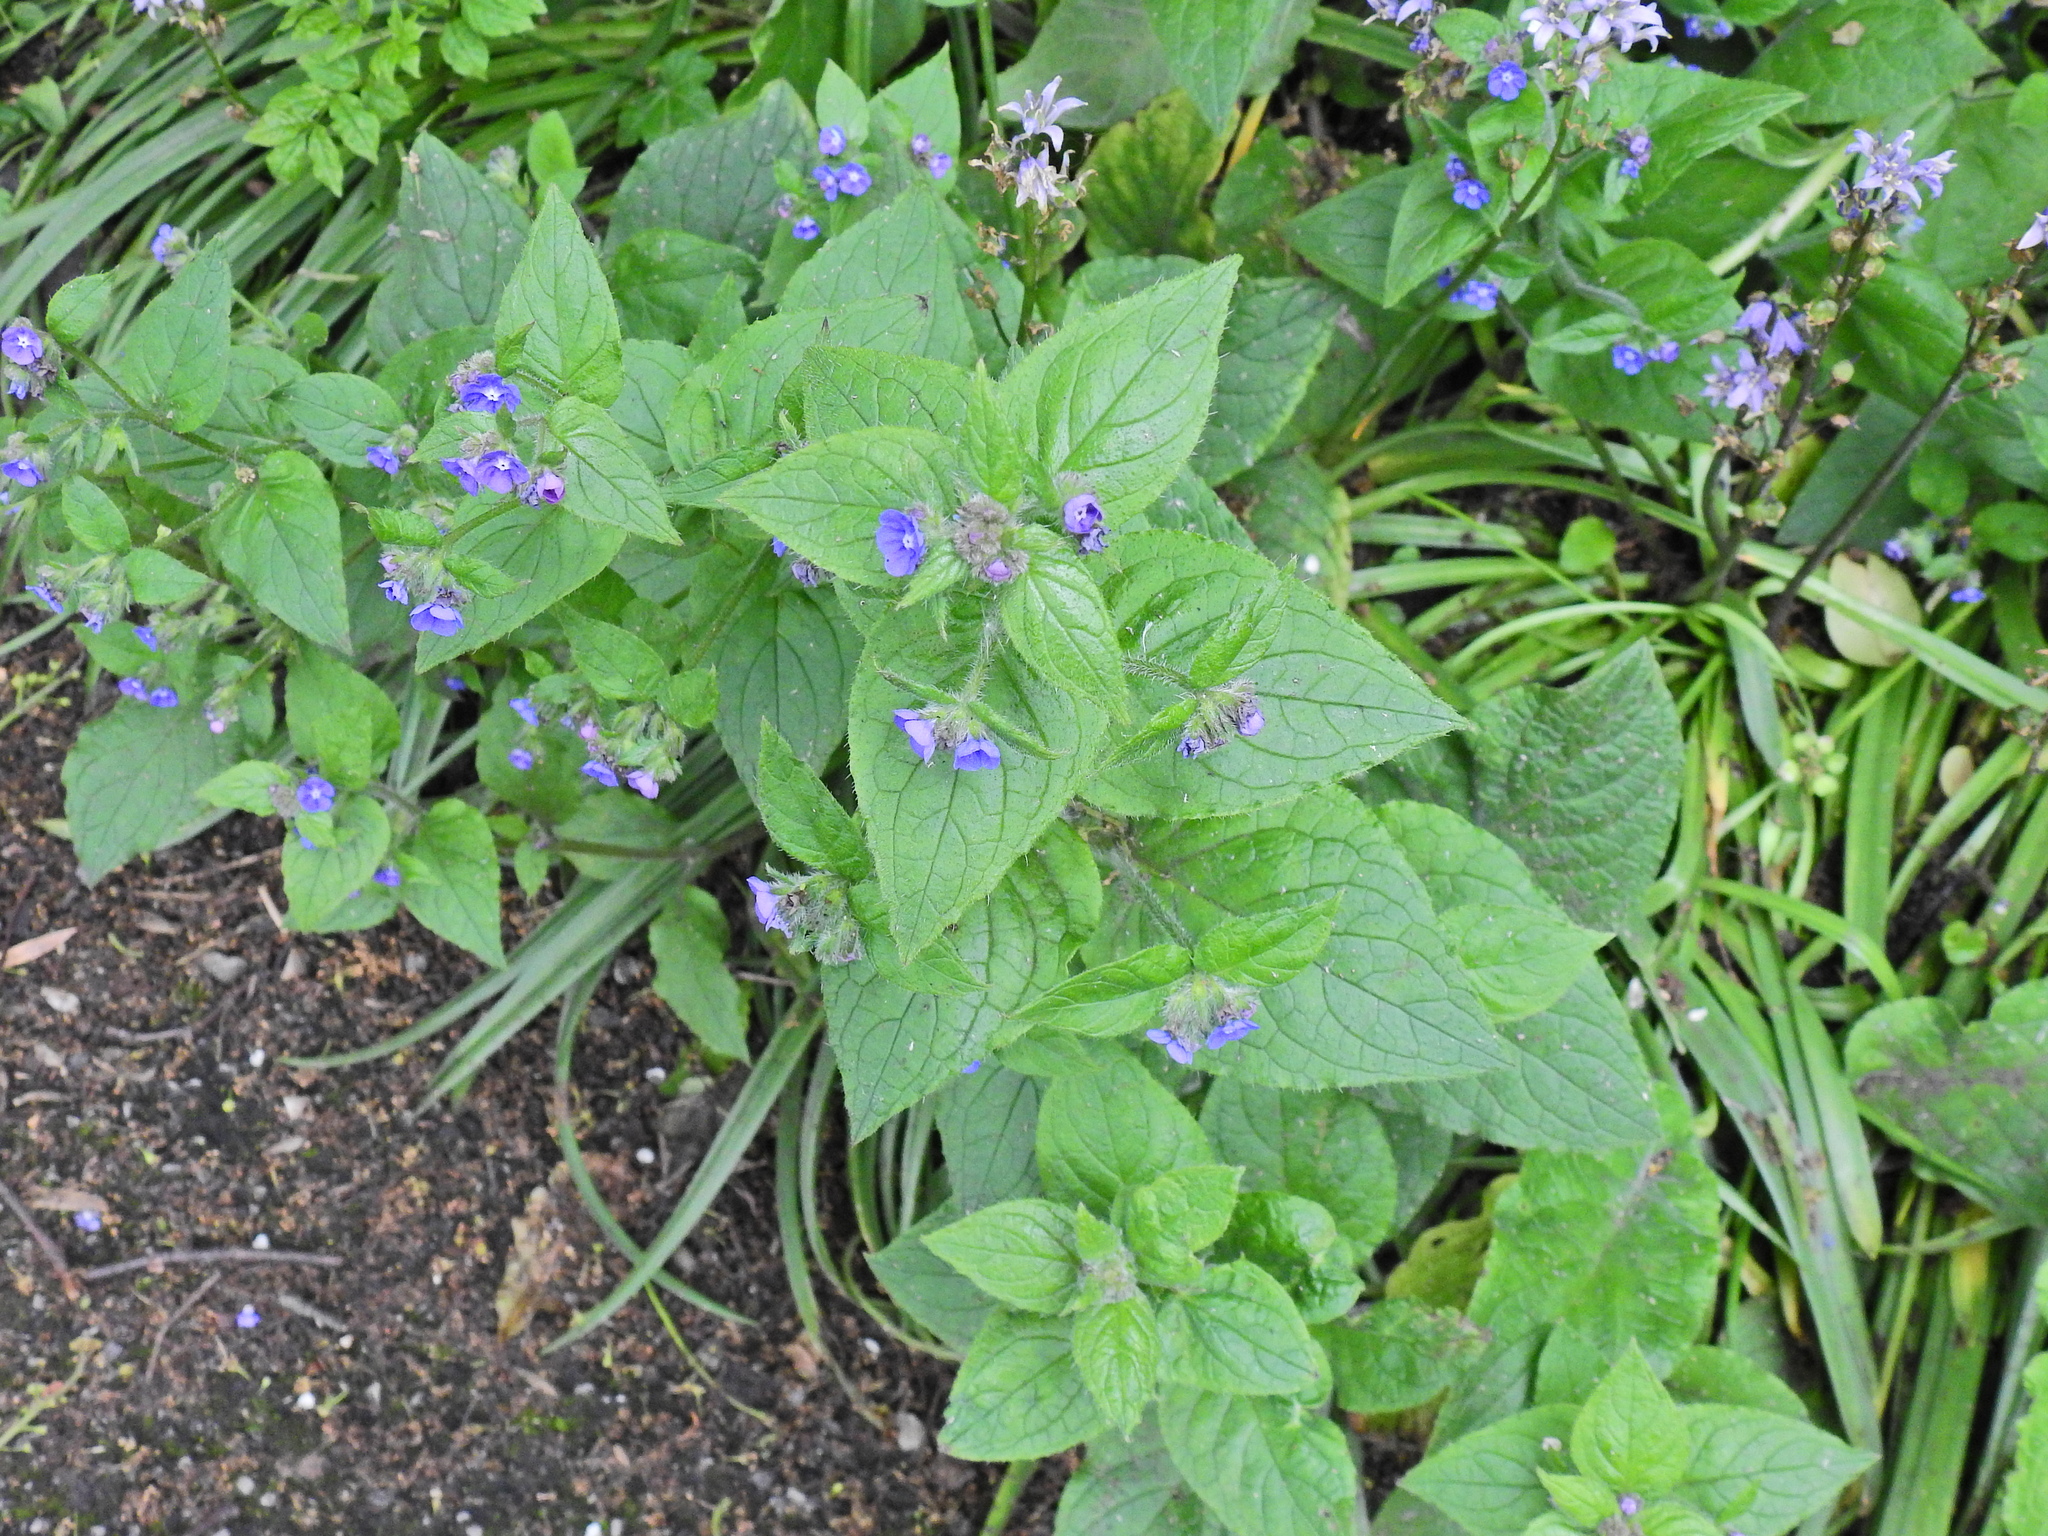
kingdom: Plantae
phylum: Tracheophyta
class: Magnoliopsida
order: Boraginales
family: Boraginaceae
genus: Pentaglottis
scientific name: Pentaglottis sempervirens
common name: Green alkanet
